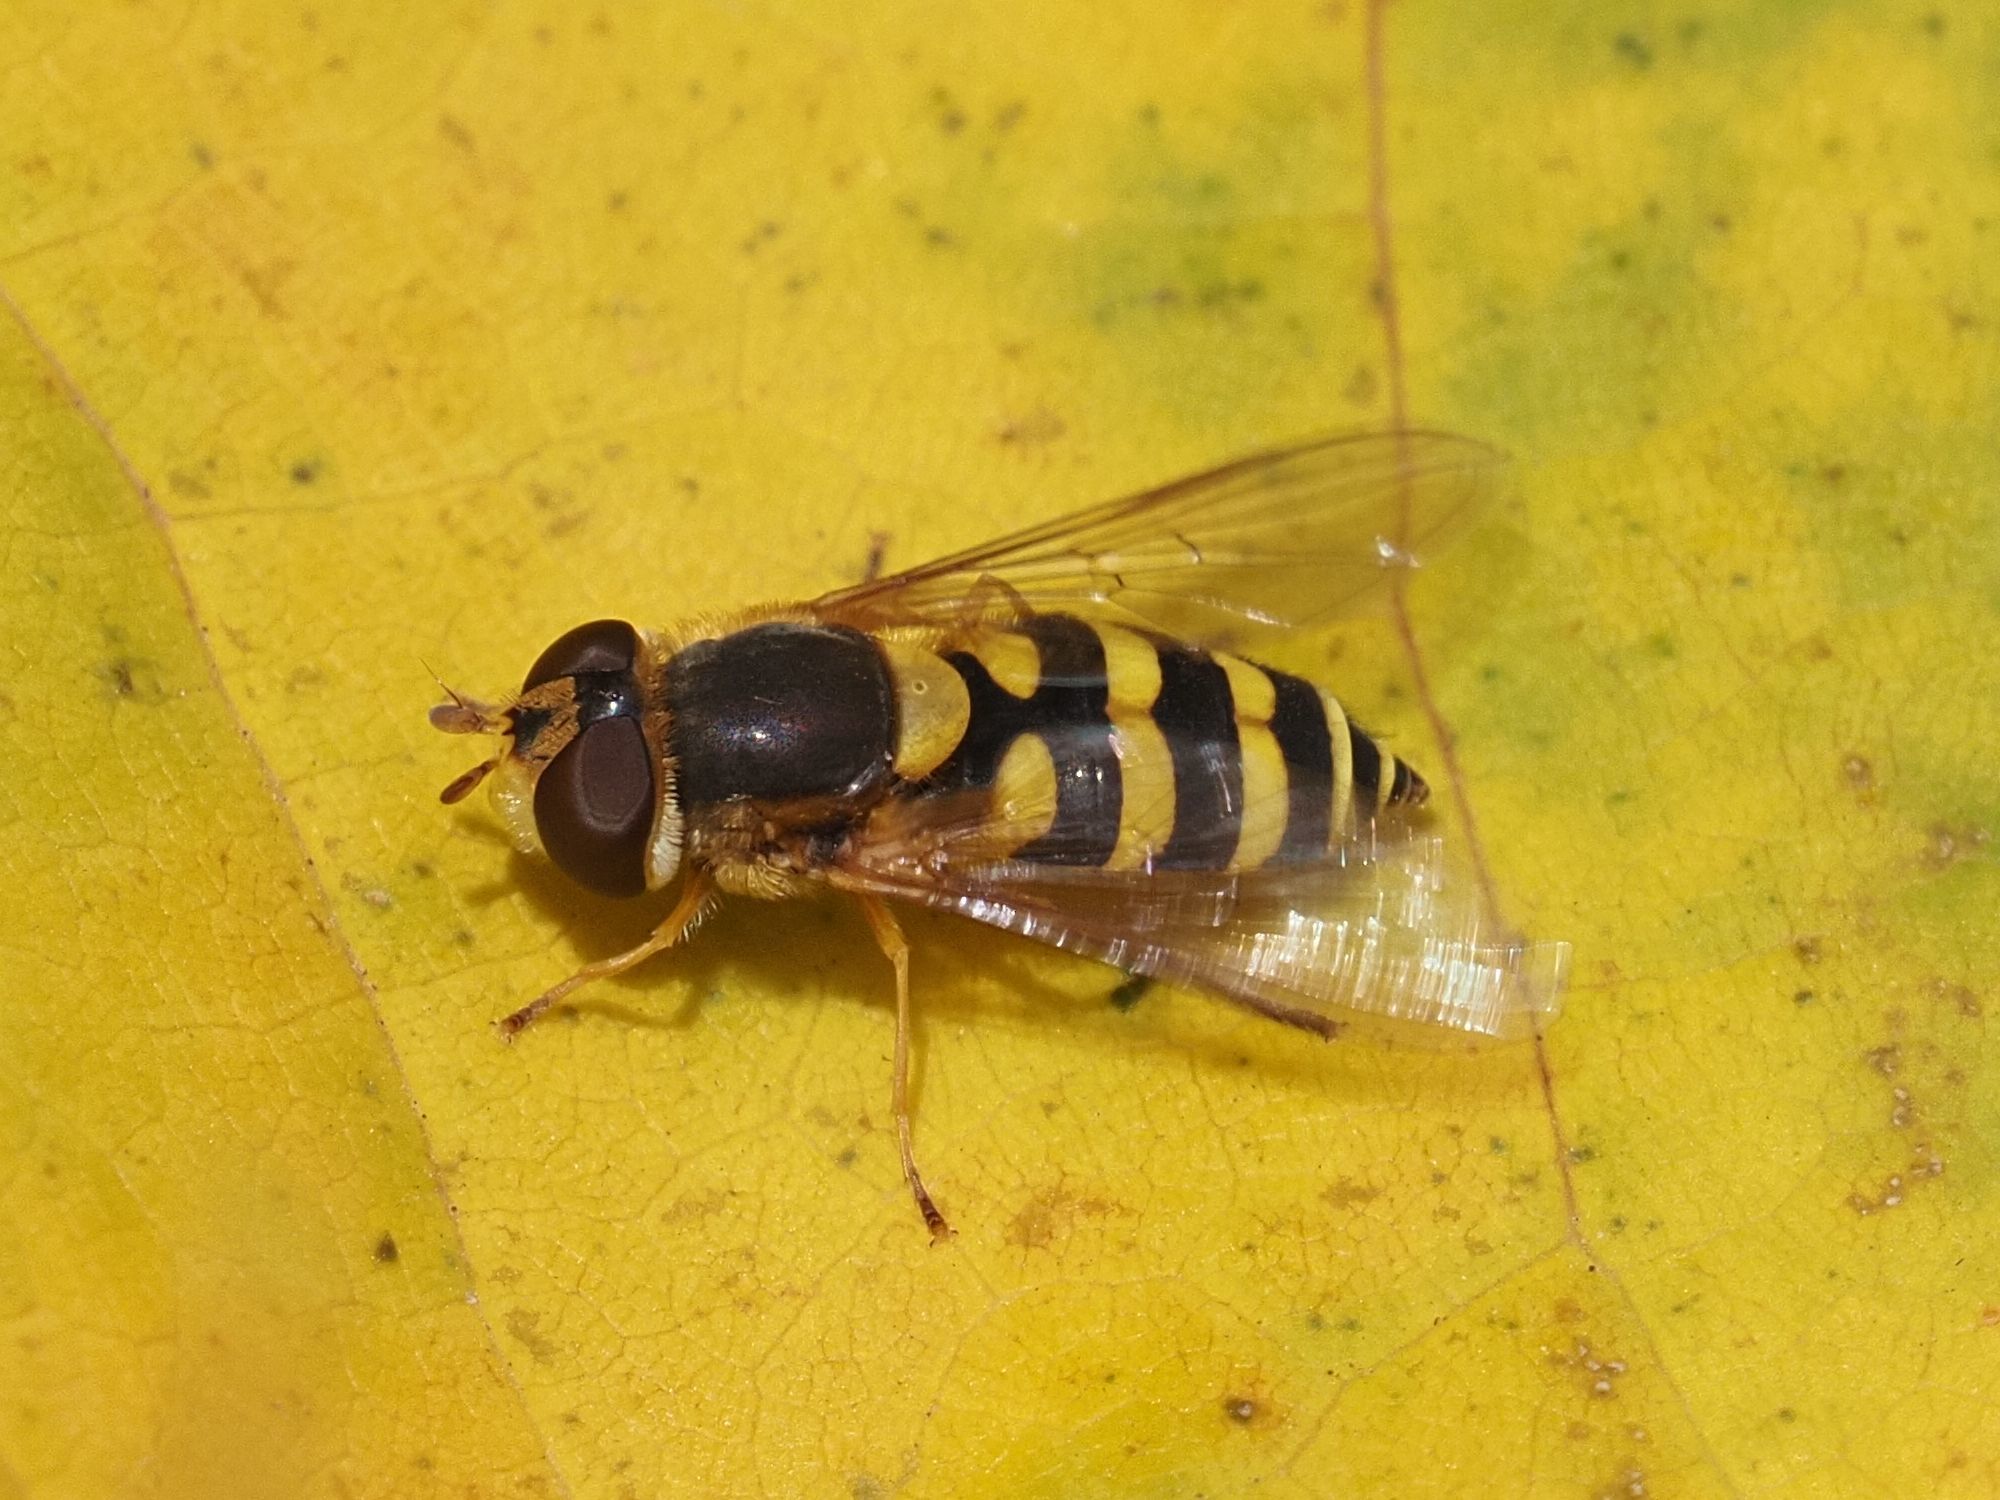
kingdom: Animalia
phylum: Arthropoda
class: Insecta
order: Diptera
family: Syrphidae
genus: Syrphus
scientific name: Syrphus
